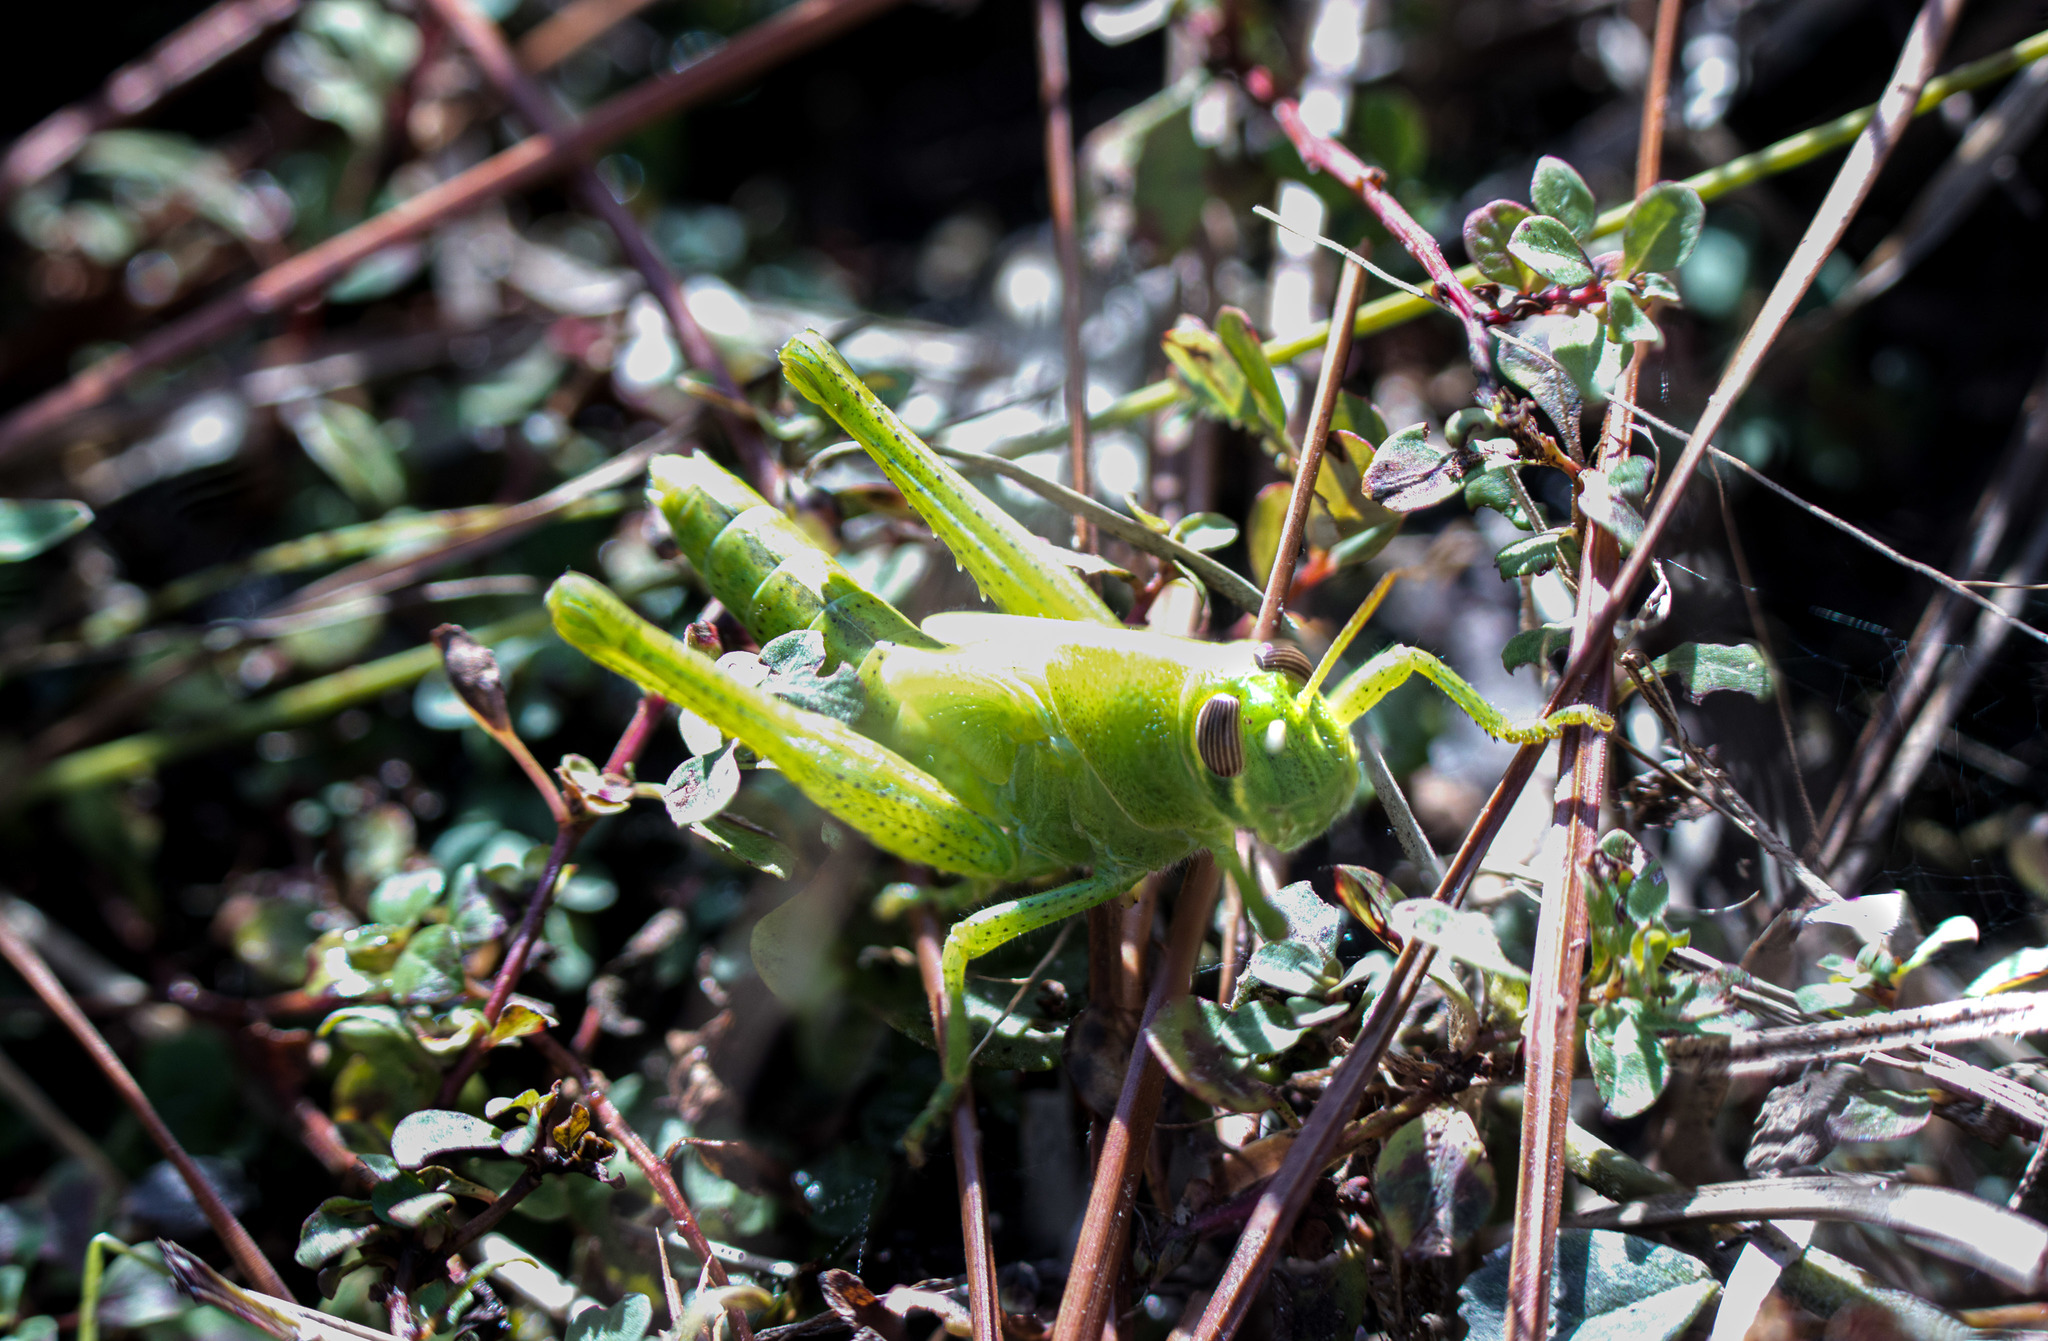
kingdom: Animalia
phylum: Arthropoda
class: Insecta
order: Orthoptera
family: Acrididae
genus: Schistocerca
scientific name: Schistocerca americana
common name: American bird locust
